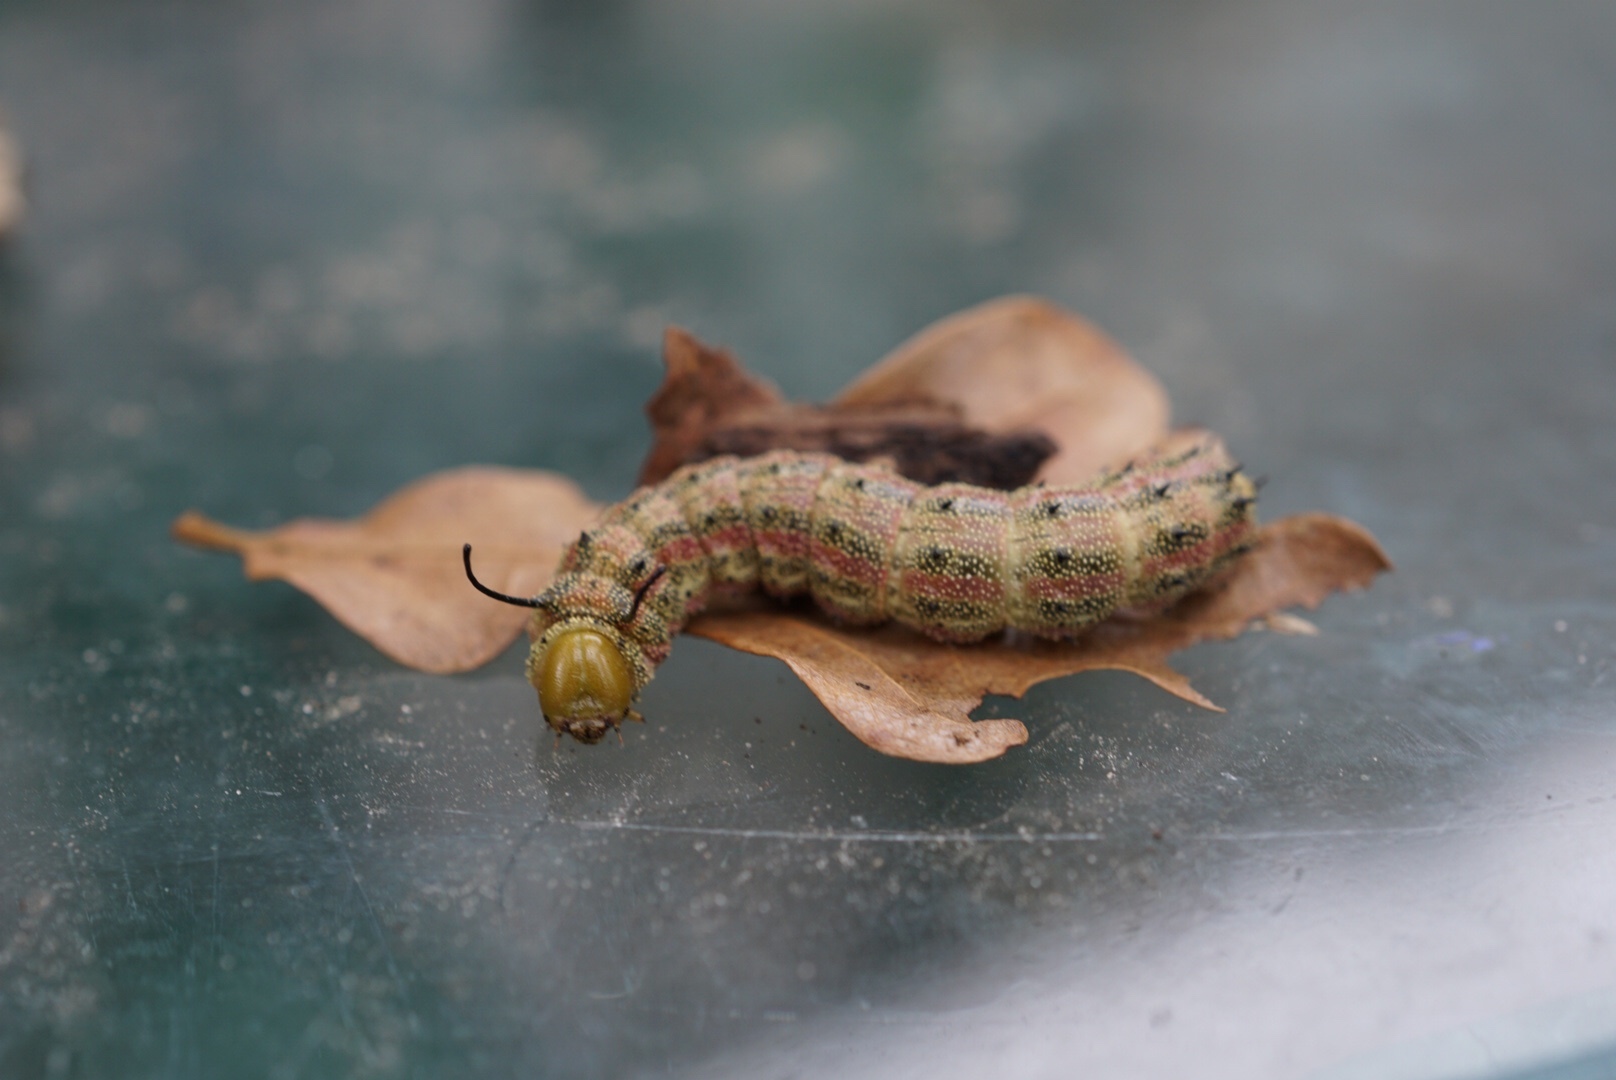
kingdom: Animalia
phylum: Arthropoda
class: Insecta
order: Lepidoptera
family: Saturniidae
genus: Anisota
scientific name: Anisota virginiensis
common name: Pink striped oakworm moth
